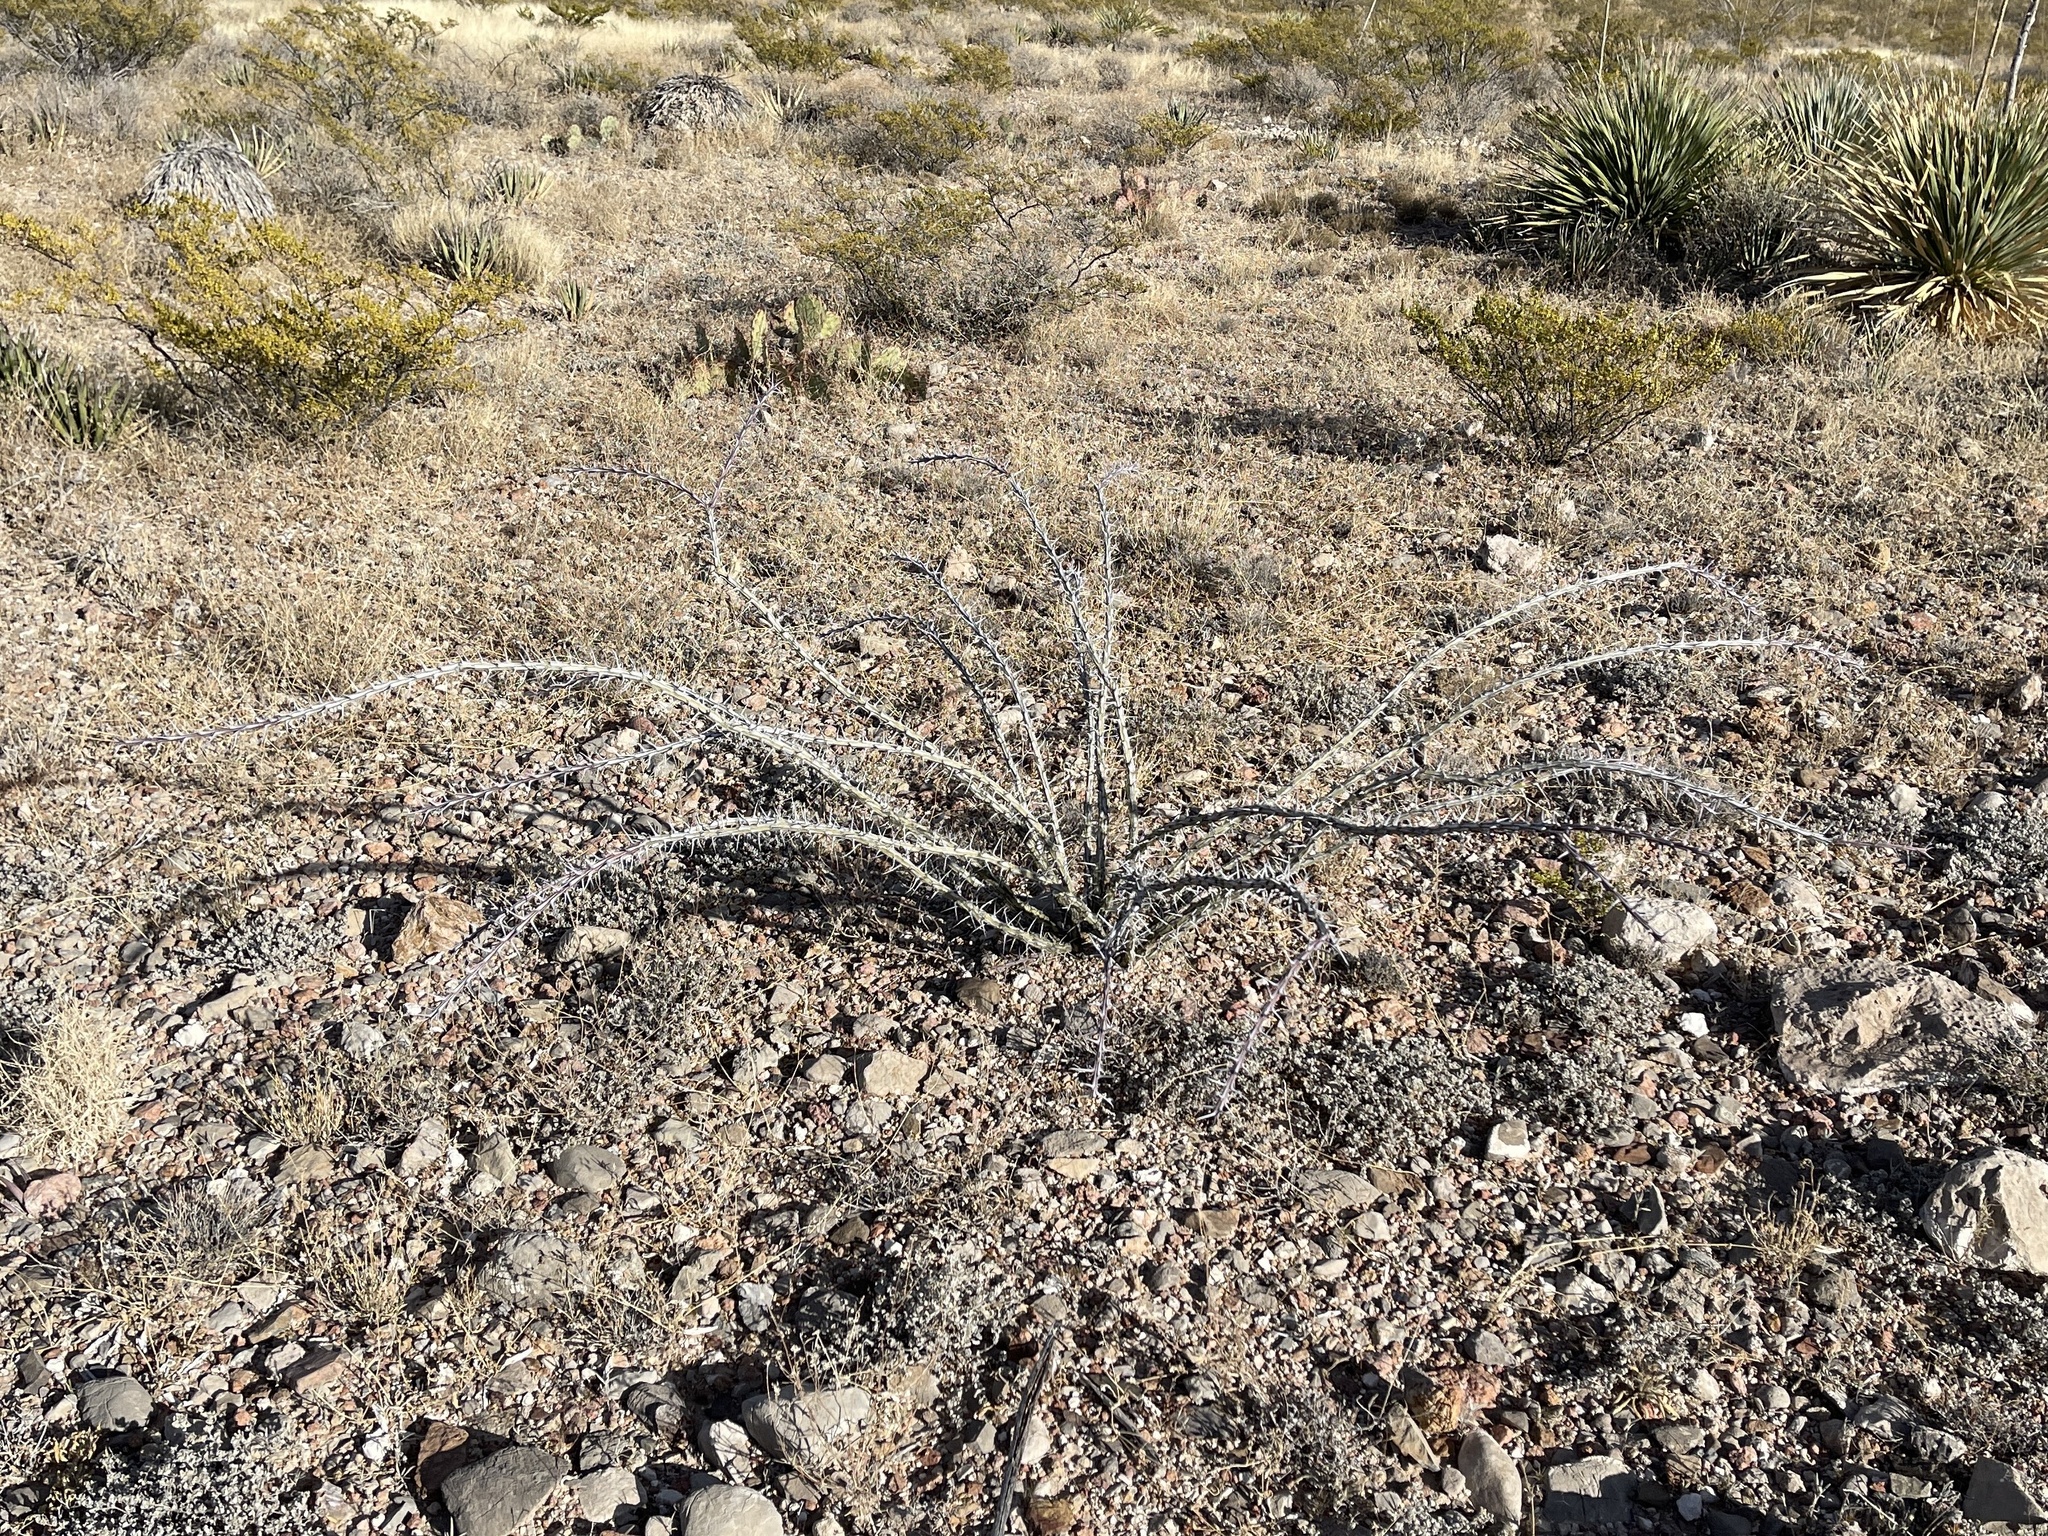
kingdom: Plantae
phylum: Tracheophyta
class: Magnoliopsida
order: Ericales
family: Fouquieriaceae
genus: Fouquieria
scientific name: Fouquieria splendens
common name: Vine-cactus
